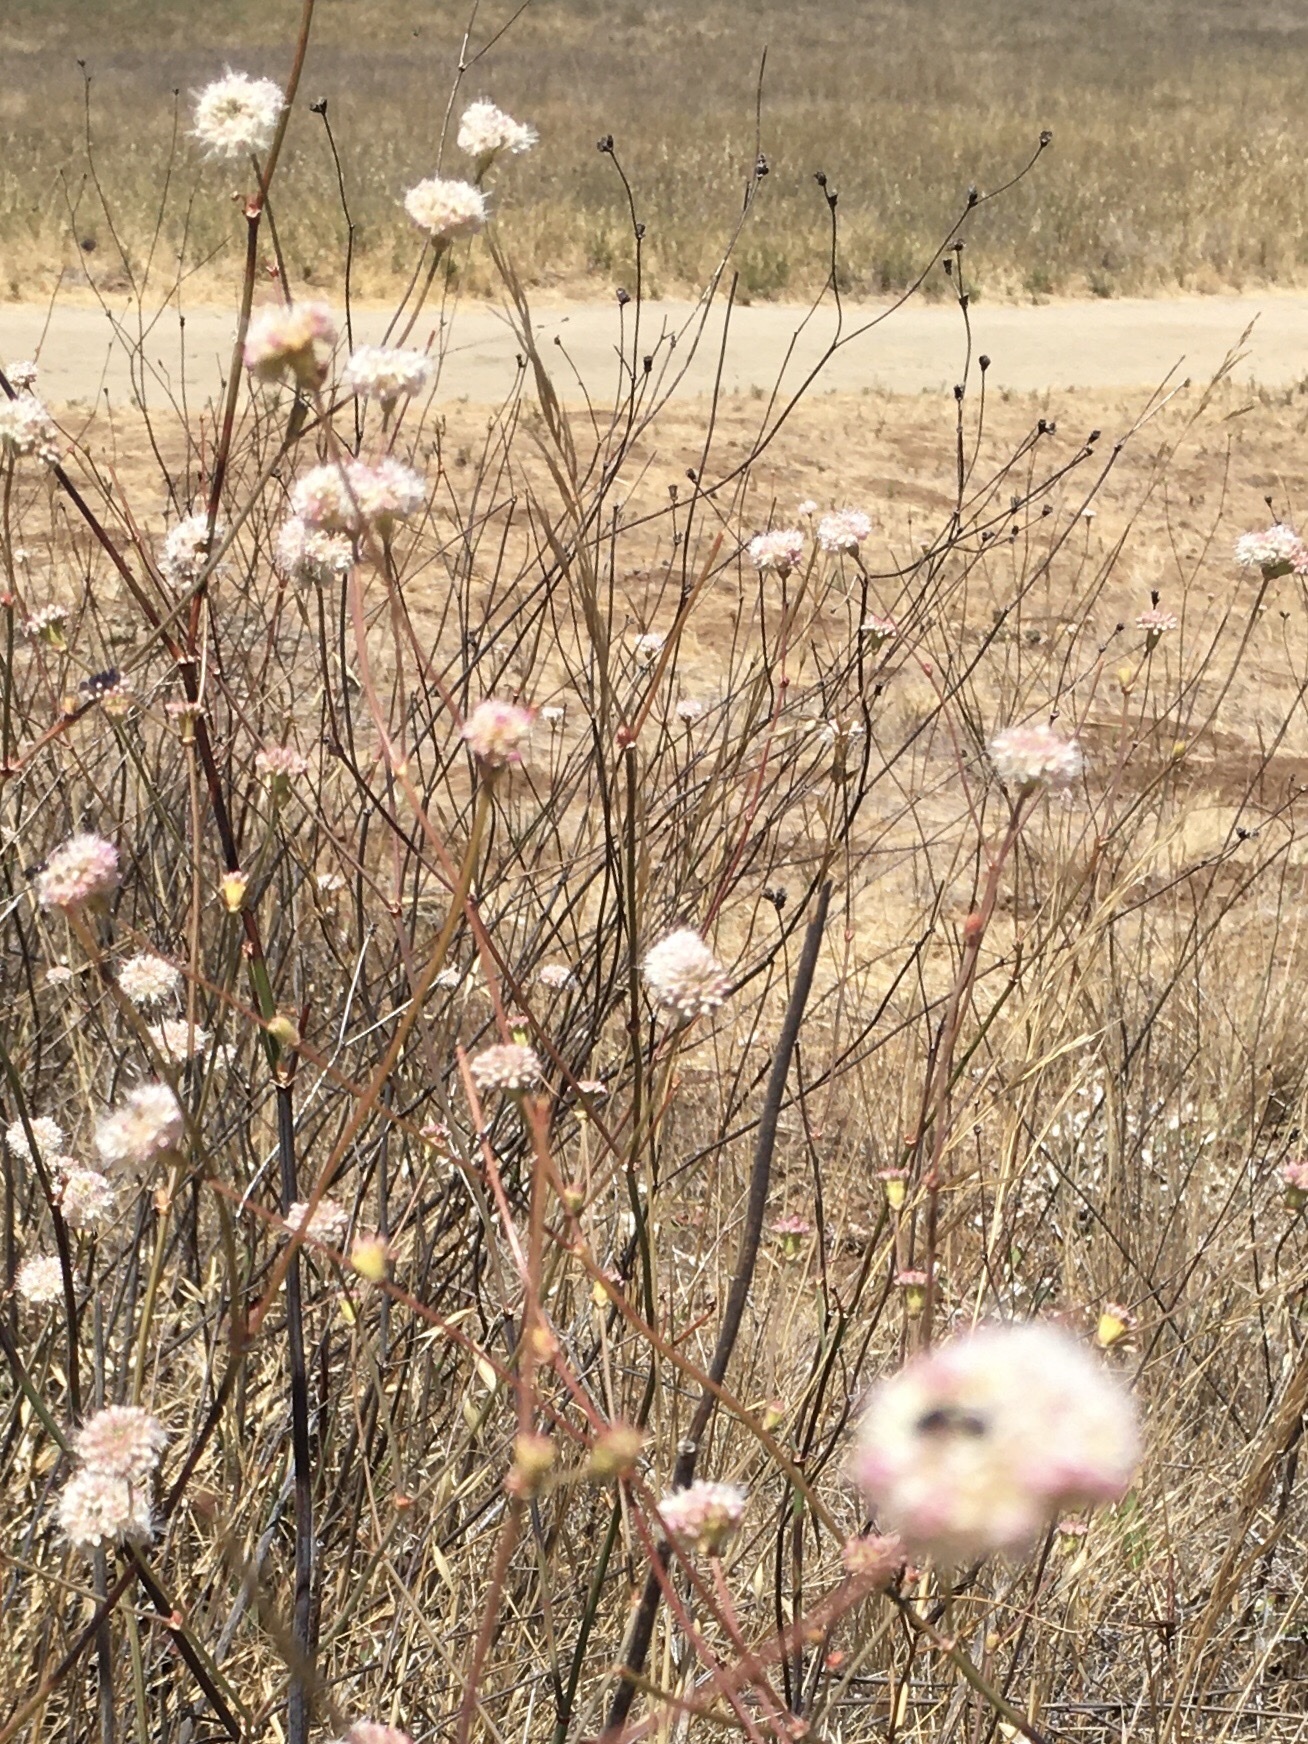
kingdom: Plantae
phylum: Tracheophyta
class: Magnoliopsida
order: Caryophyllales
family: Polygonaceae
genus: Eriogonum
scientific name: Eriogonum nudum
